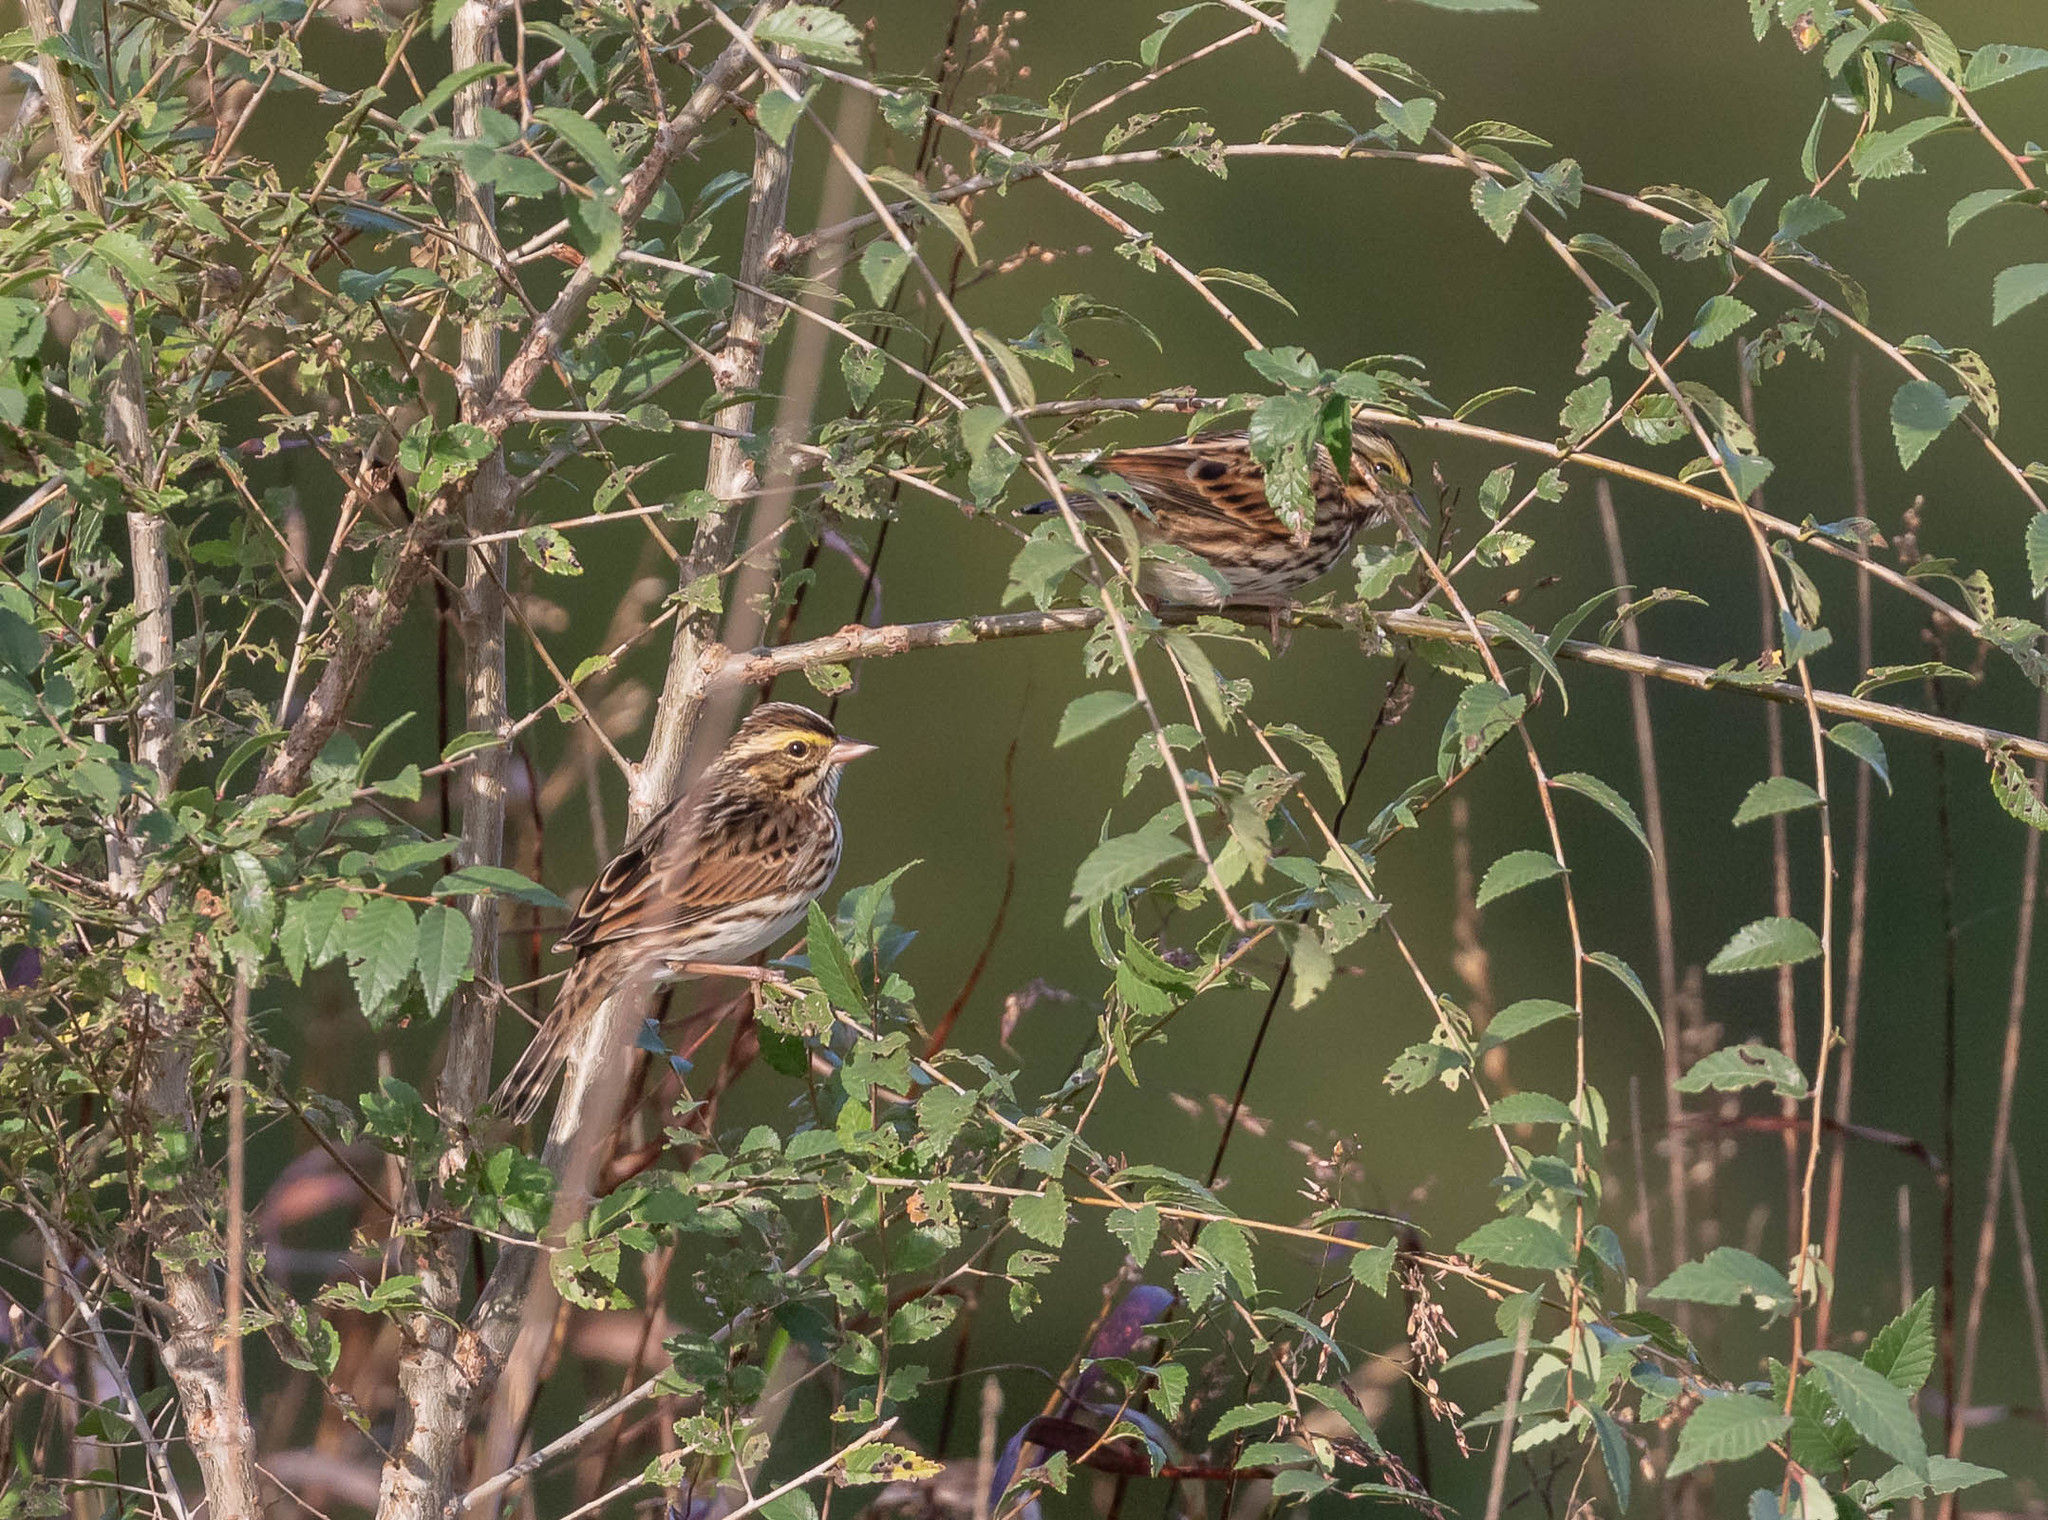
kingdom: Animalia
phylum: Chordata
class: Aves
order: Passeriformes
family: Passerellidae
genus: Passerculus
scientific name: Passerculus sandwichensis
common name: Savannah sparrow
